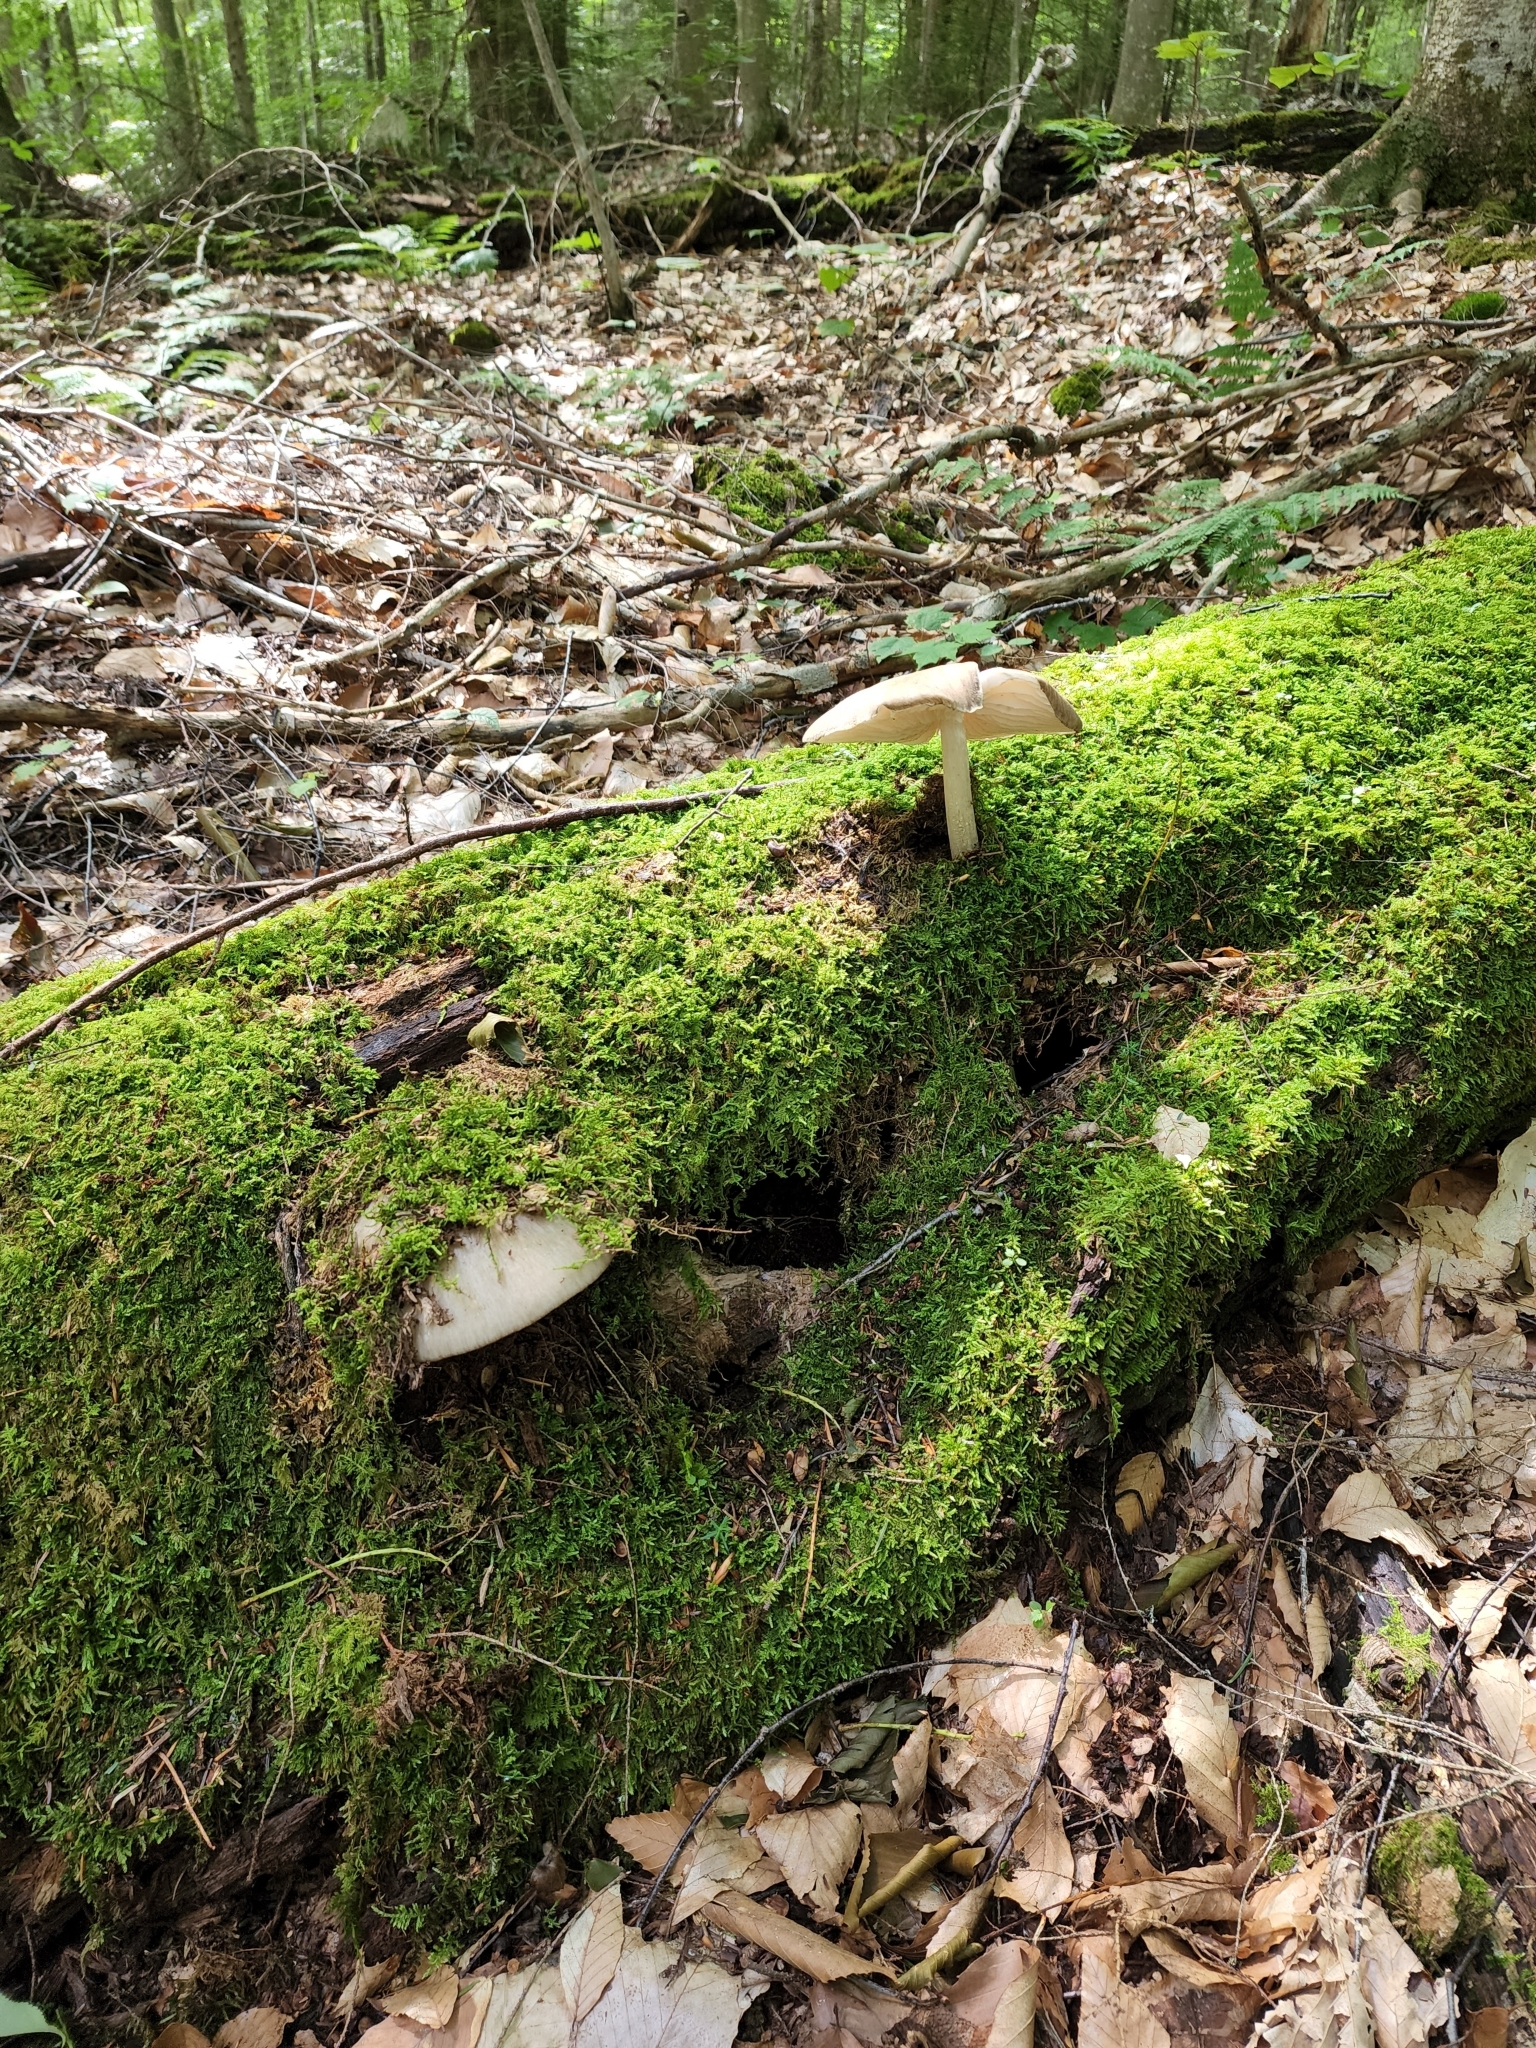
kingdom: Fungi
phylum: Basidiomycota
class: Agaricomycetes
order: Agaricales
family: Tricholomataceae
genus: Megacollybia
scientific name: Megacollybia rodmanii
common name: Eastern american platterful mushroom
